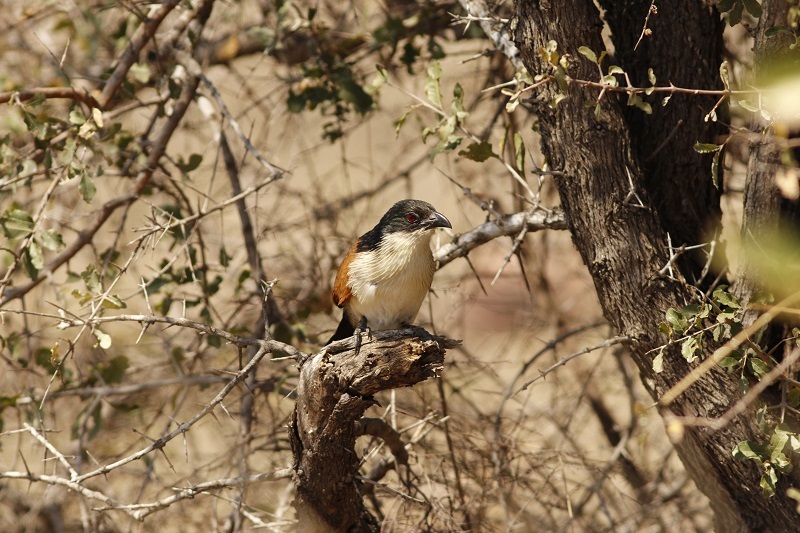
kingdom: Animalia
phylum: Chordata
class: Aves
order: Cuculiformes
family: Cuculidae
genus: Centropus
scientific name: Centropus superciliosus
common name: White-browed coucal
